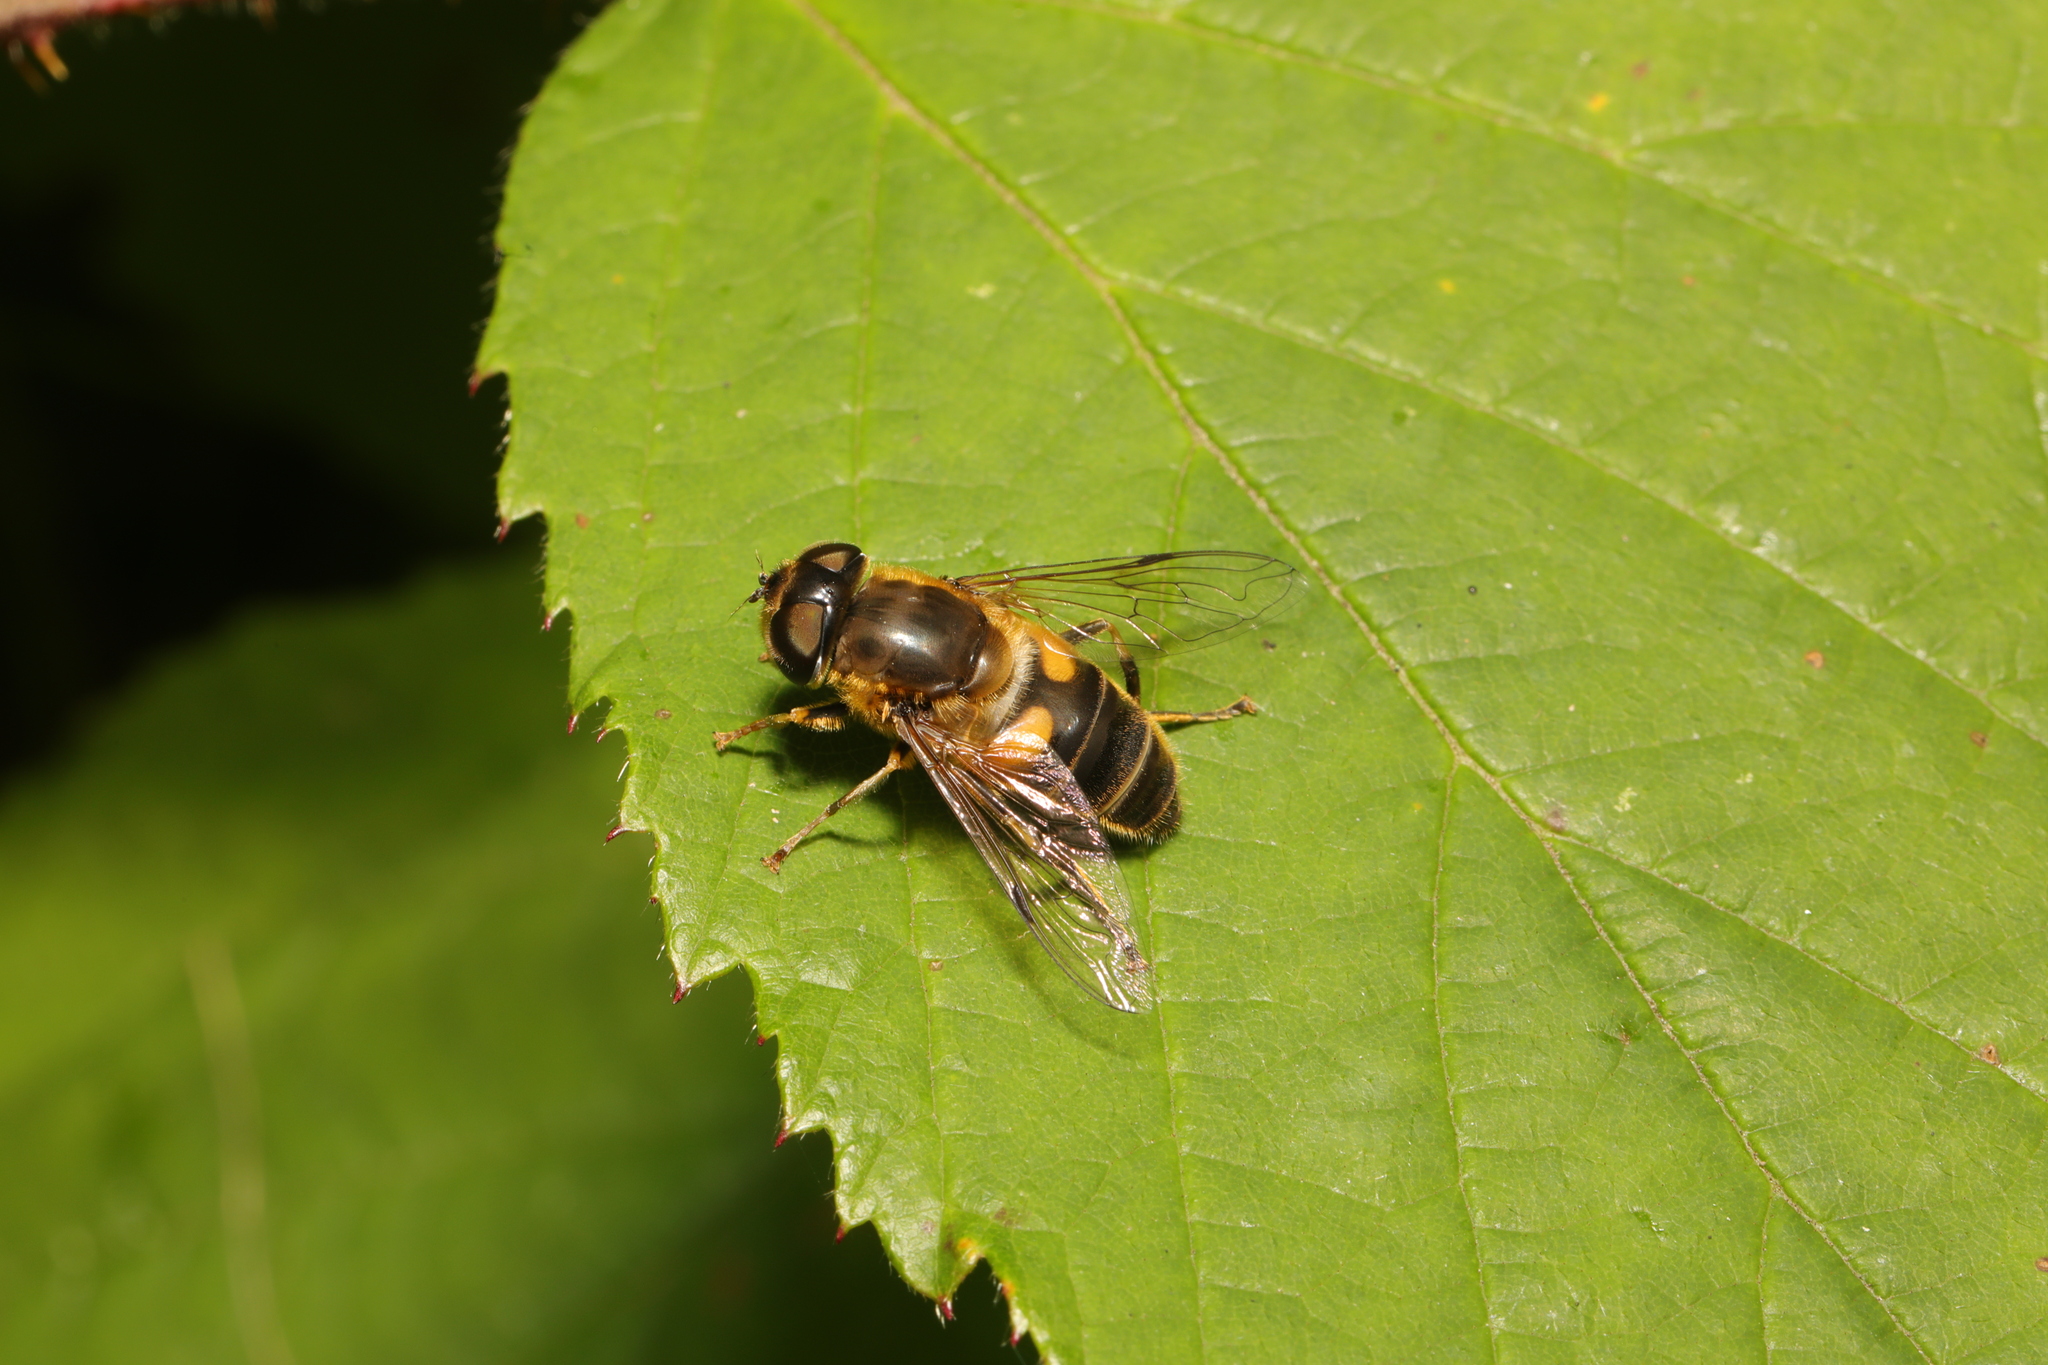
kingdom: Animalia
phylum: Arthropoda
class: Insecta
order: Diptera
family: Syrphidae
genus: Eristalis
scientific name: Eristalis pertinax
